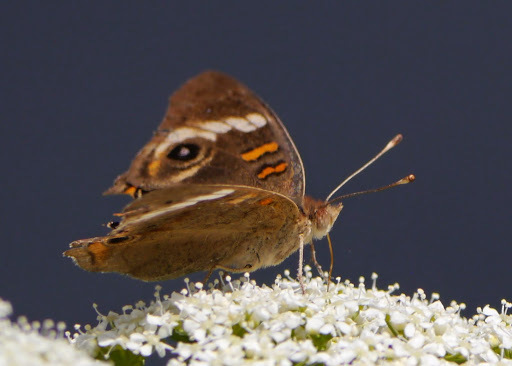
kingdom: Animalia
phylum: Arthropoda
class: Insecta
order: Lepidoptera
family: Nymphalidae
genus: Junonia
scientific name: Junonia coenia
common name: Common buckeye
